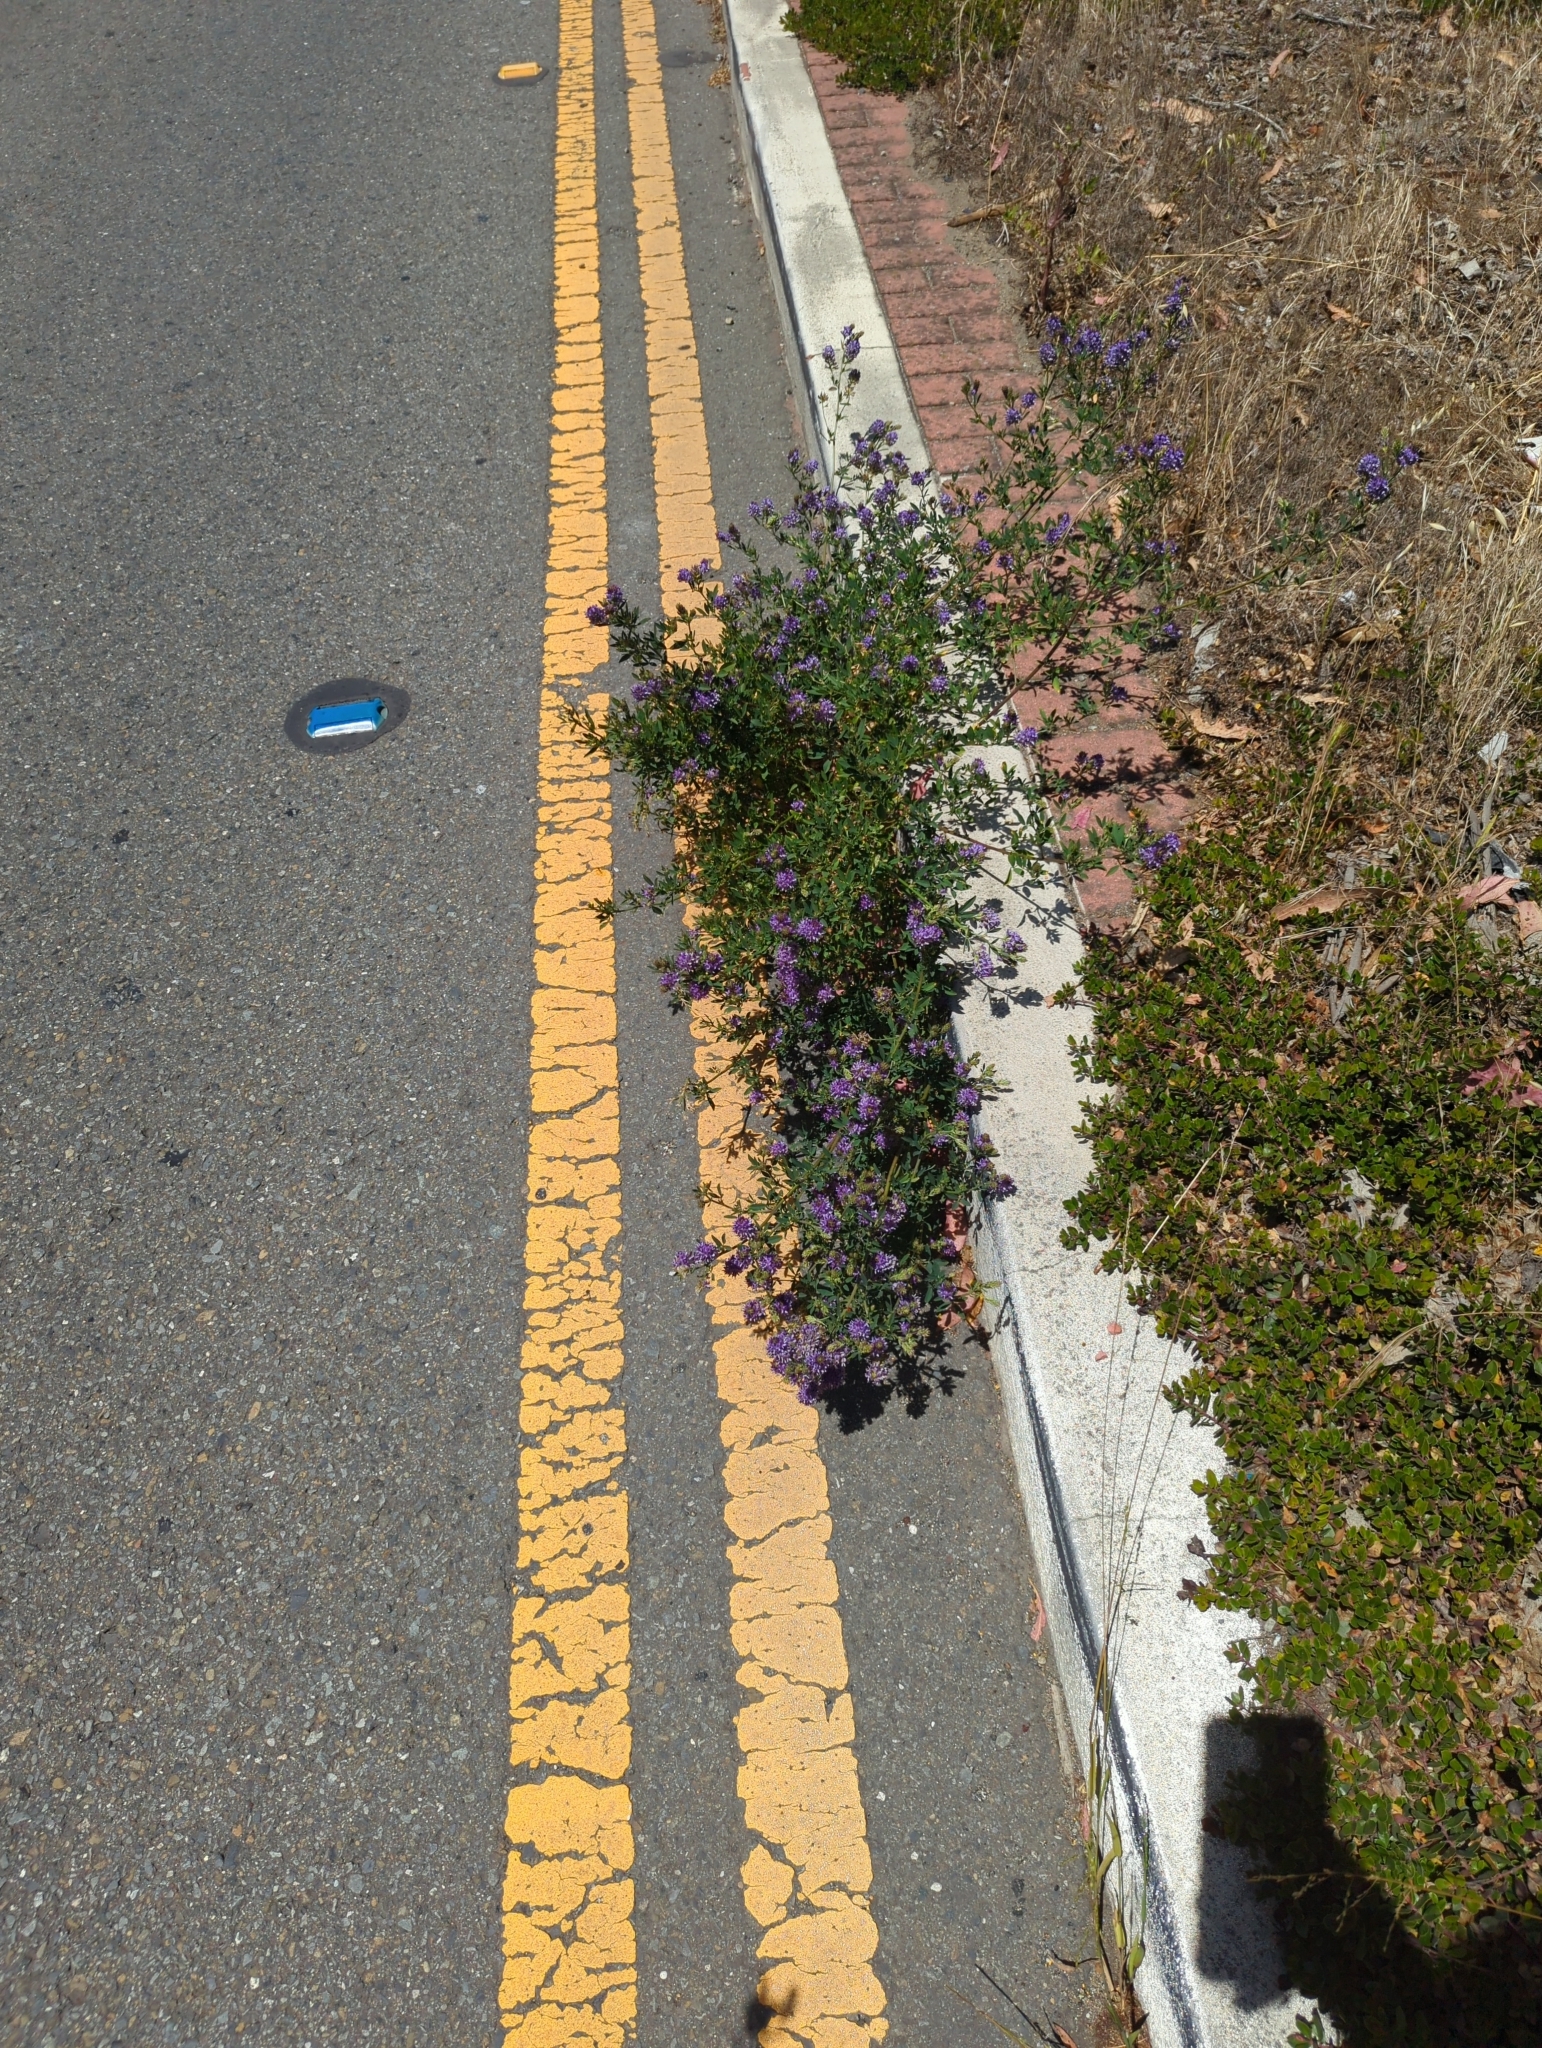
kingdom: Plantae
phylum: Tracheophyta
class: Magnoliopsida
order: Fabales
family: Fabaceae
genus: Medicago
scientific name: Medicago sativa
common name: Alfalfa
